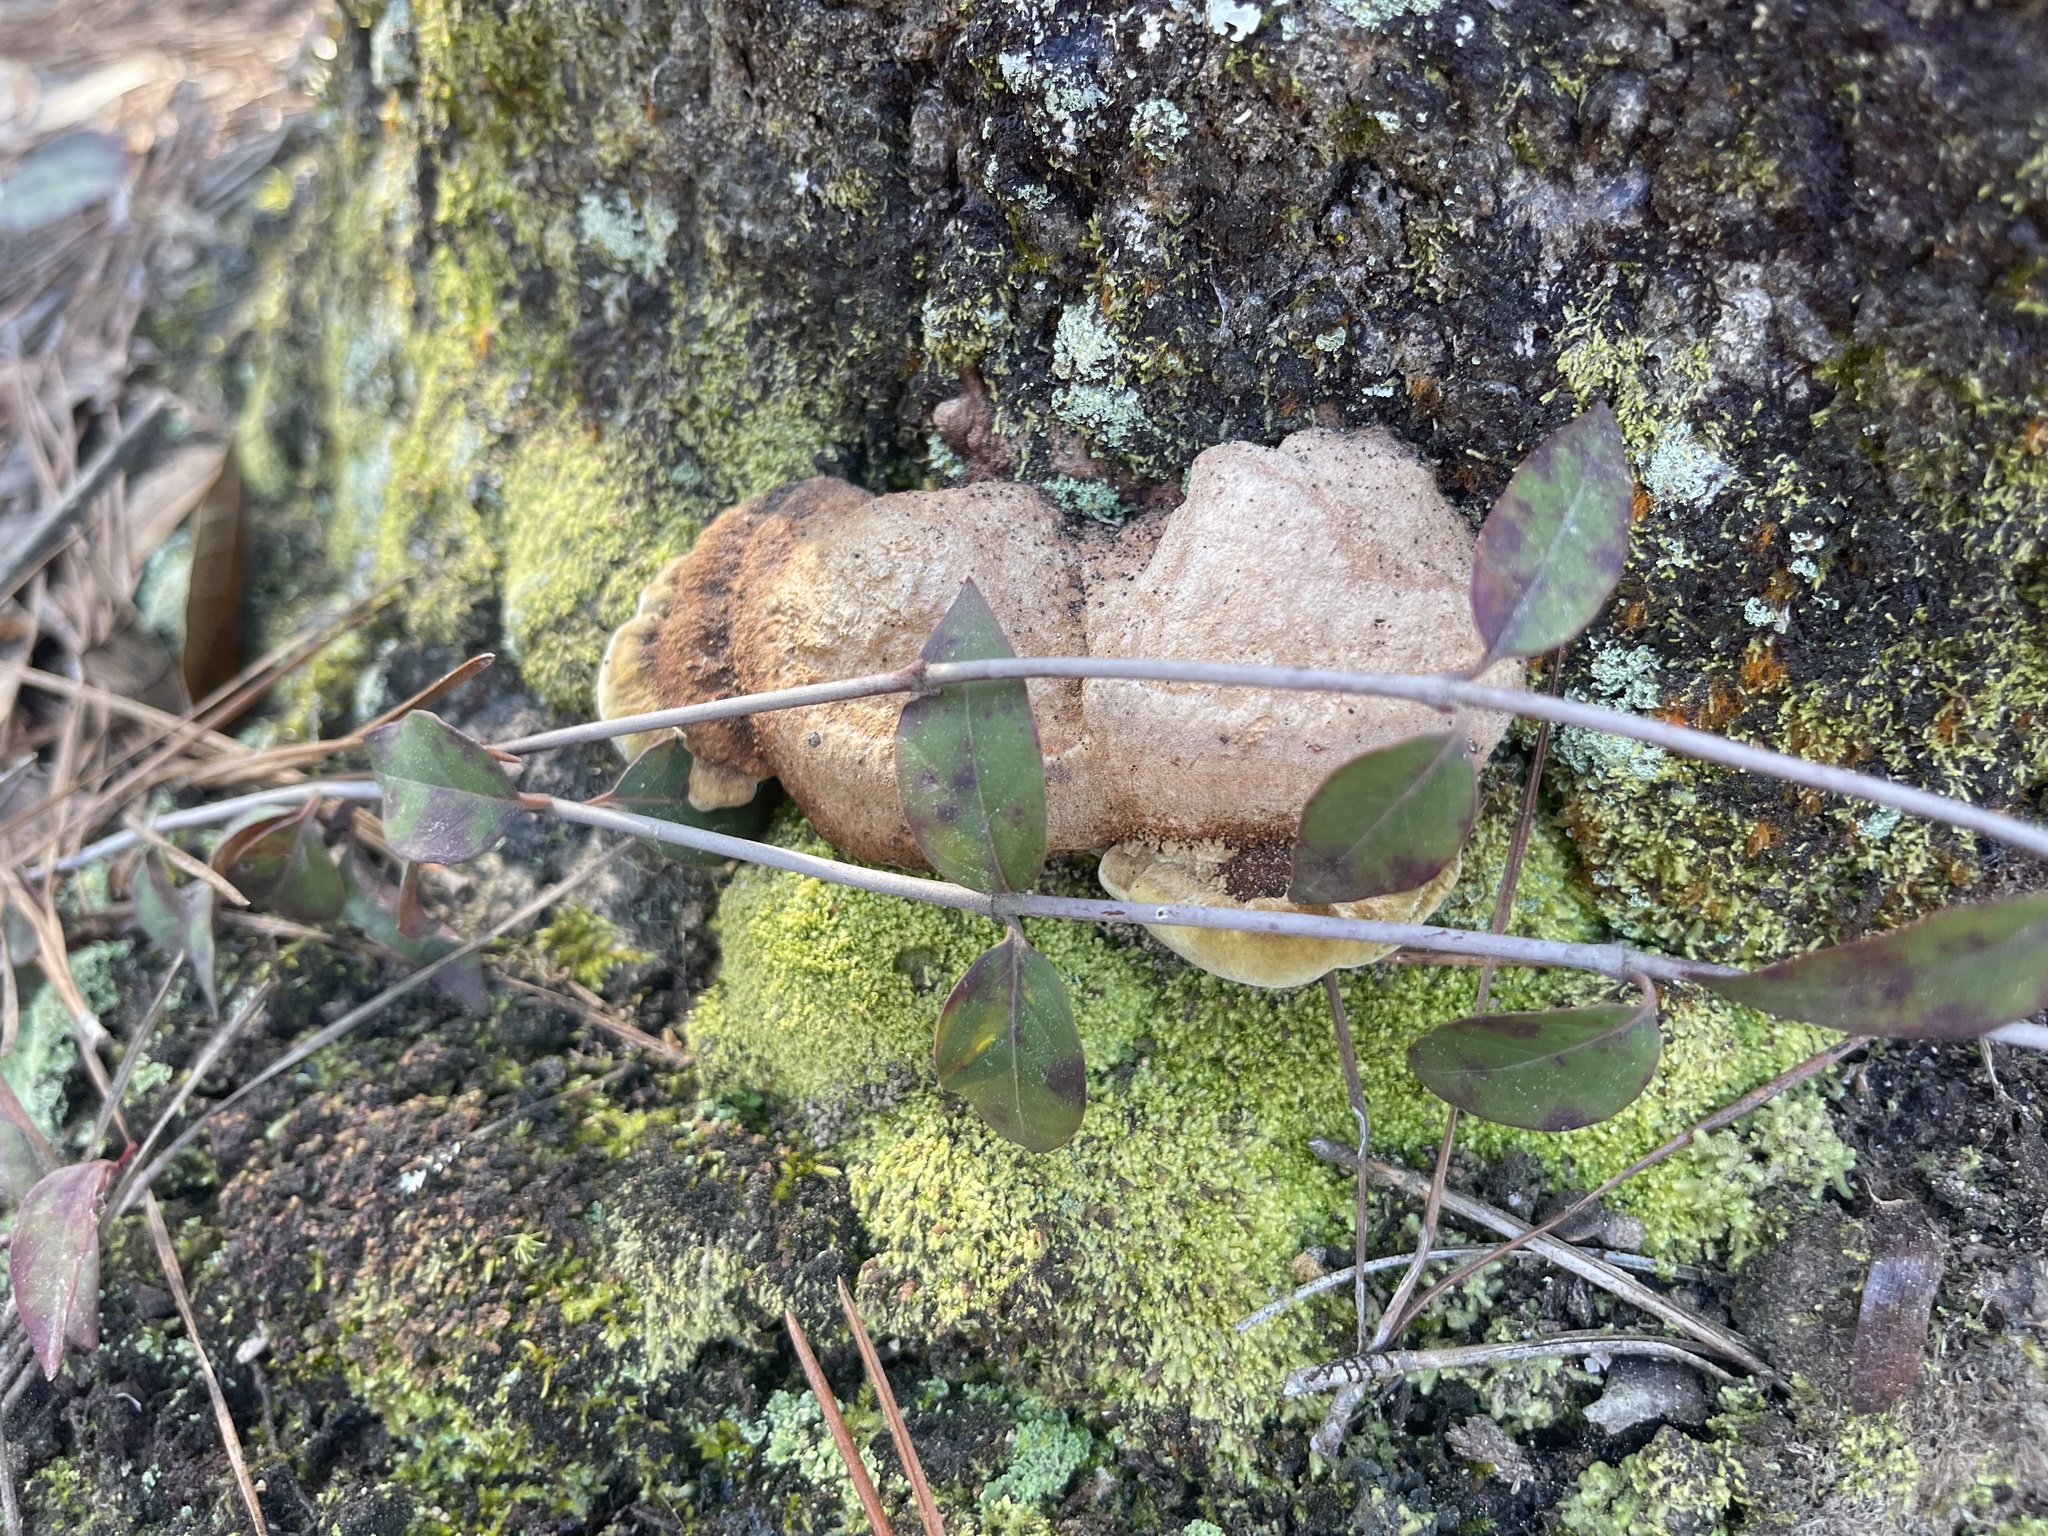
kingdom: Fungi
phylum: Basidiomycota
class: Agaricomycetes
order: Hymenochaetales
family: Hymenochaetaceae
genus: Phellinus
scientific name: Phellinus gilvus
